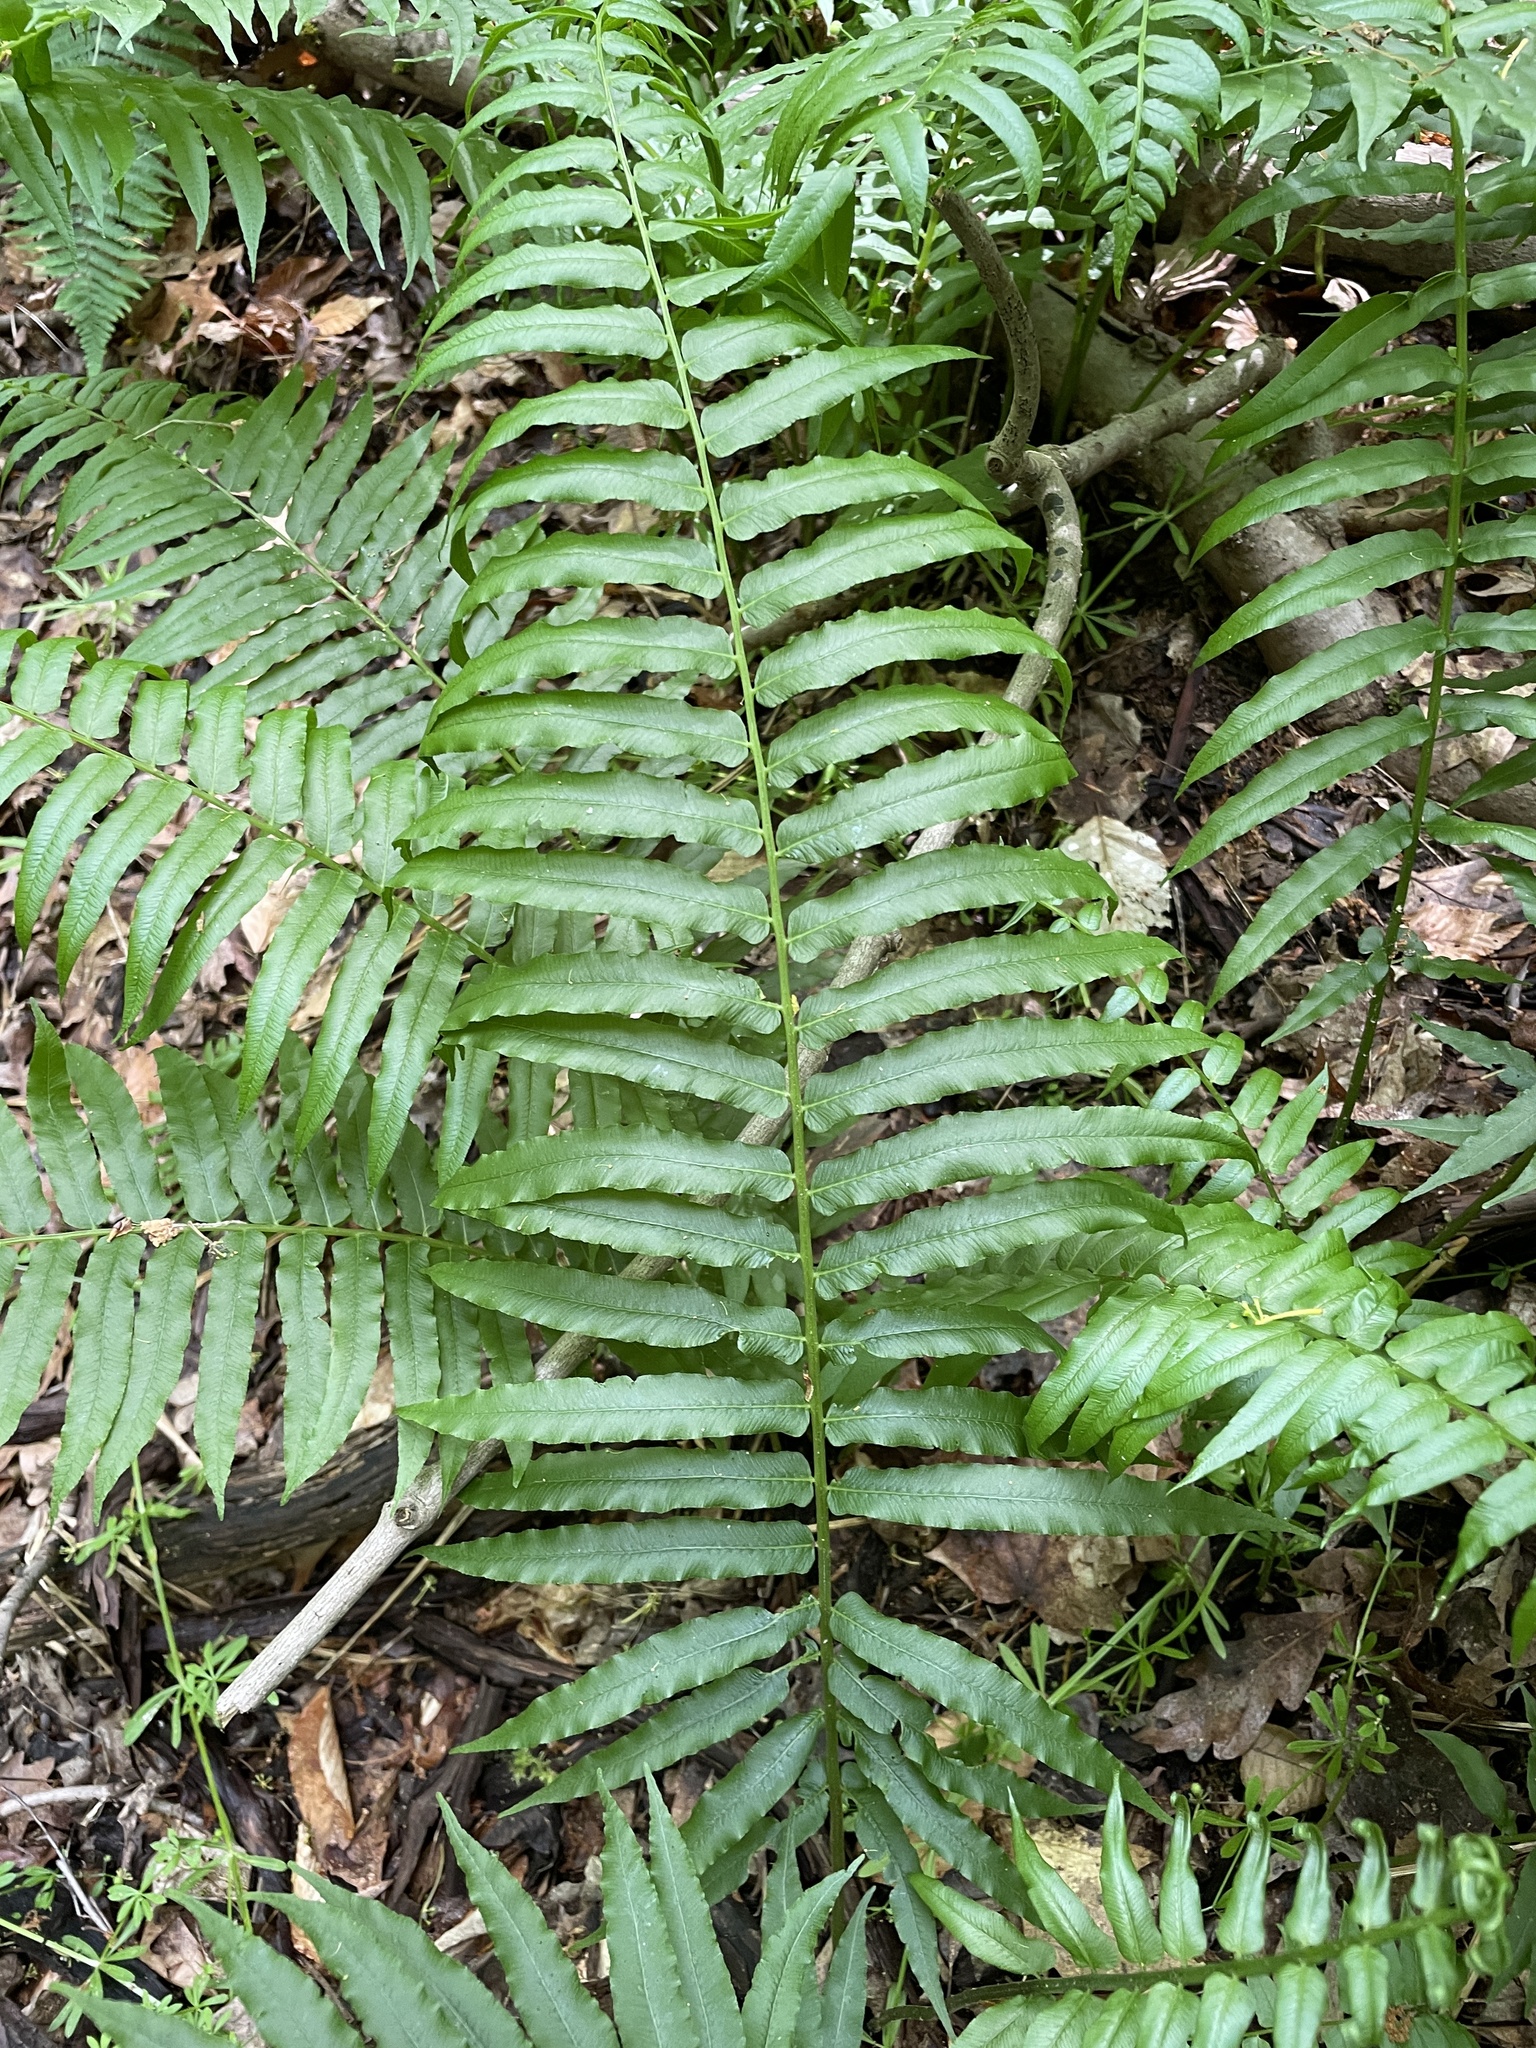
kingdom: Plantae
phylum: Tracheophyta
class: Polypodiopsida
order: Polypodiales
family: Diplaziopsidaceae
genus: Homalosorus
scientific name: Homalosorus pycnocarpos
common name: Glade fern
